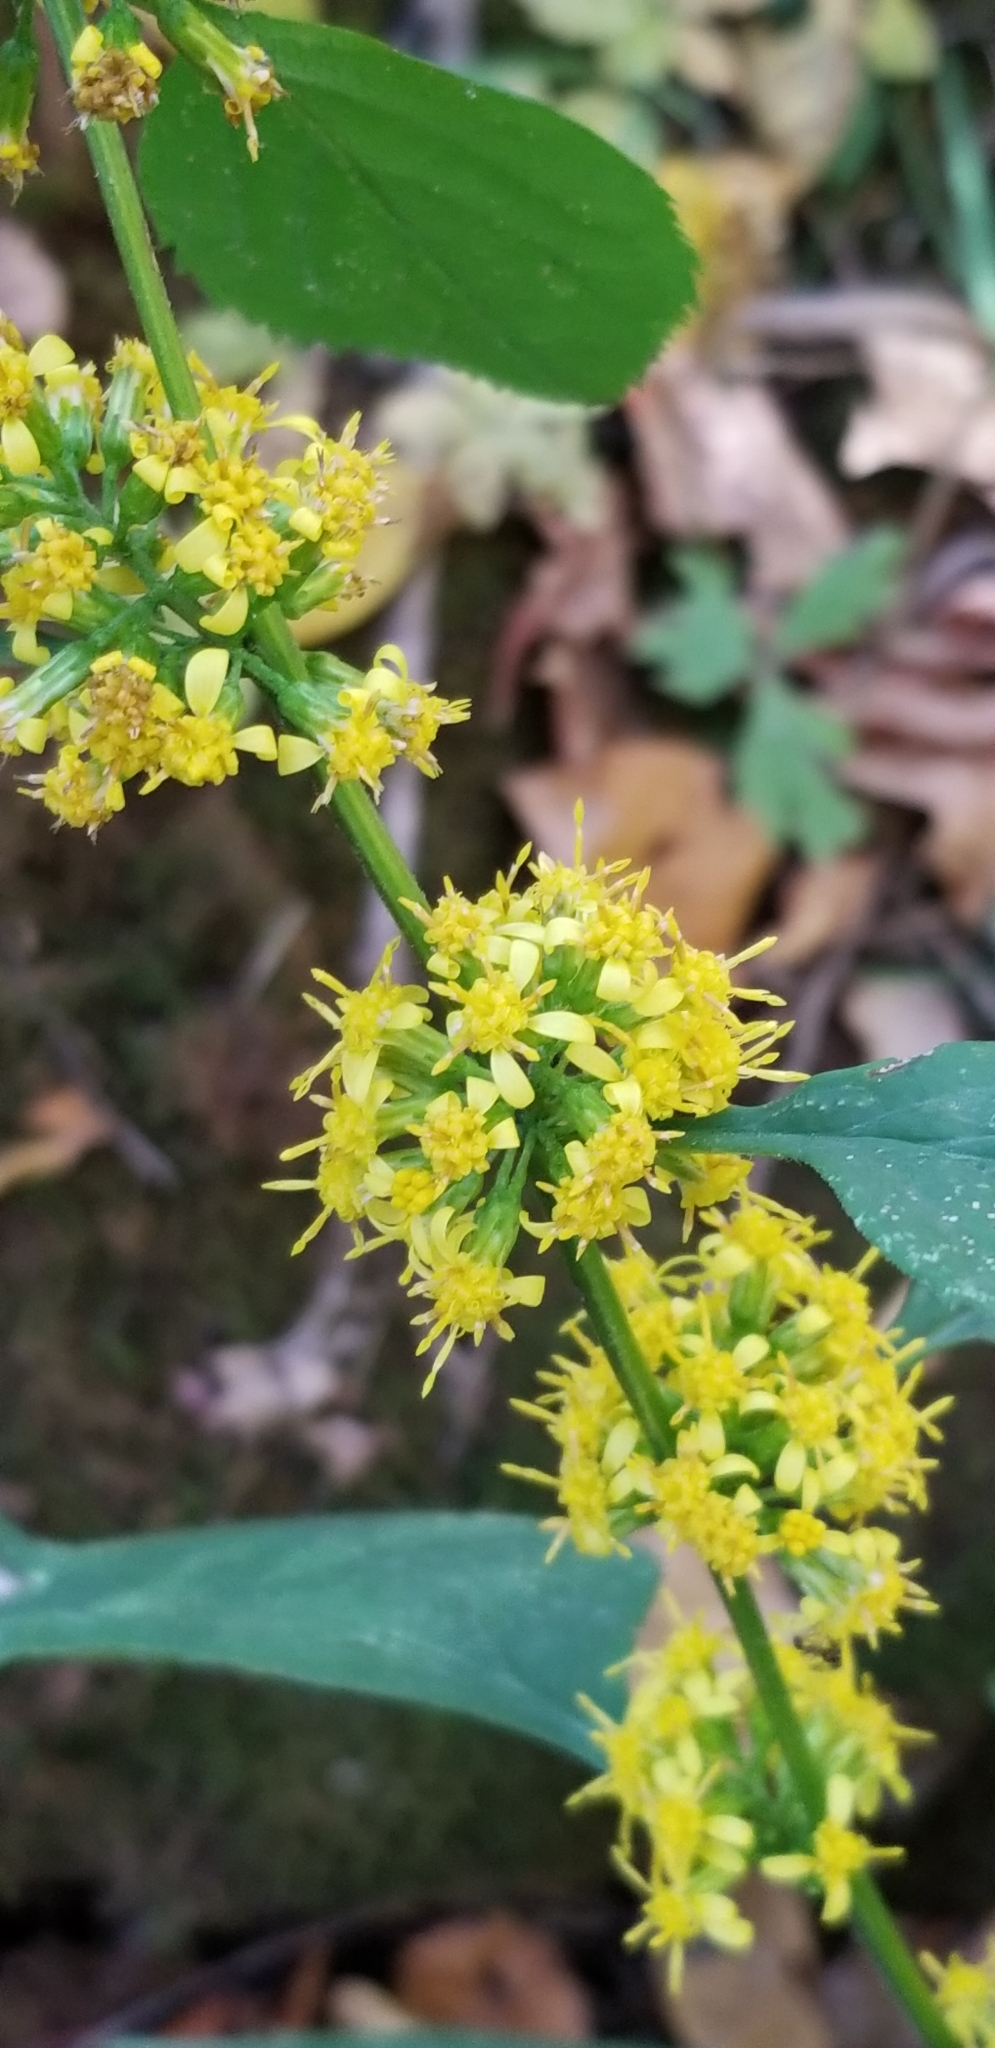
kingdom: Plantae
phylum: Tracheophyta
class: Magnoliopsida
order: Asterales
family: Asteraceae
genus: Solidago
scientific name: Solidago flexicaulis
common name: Zig-zag goldenrod
